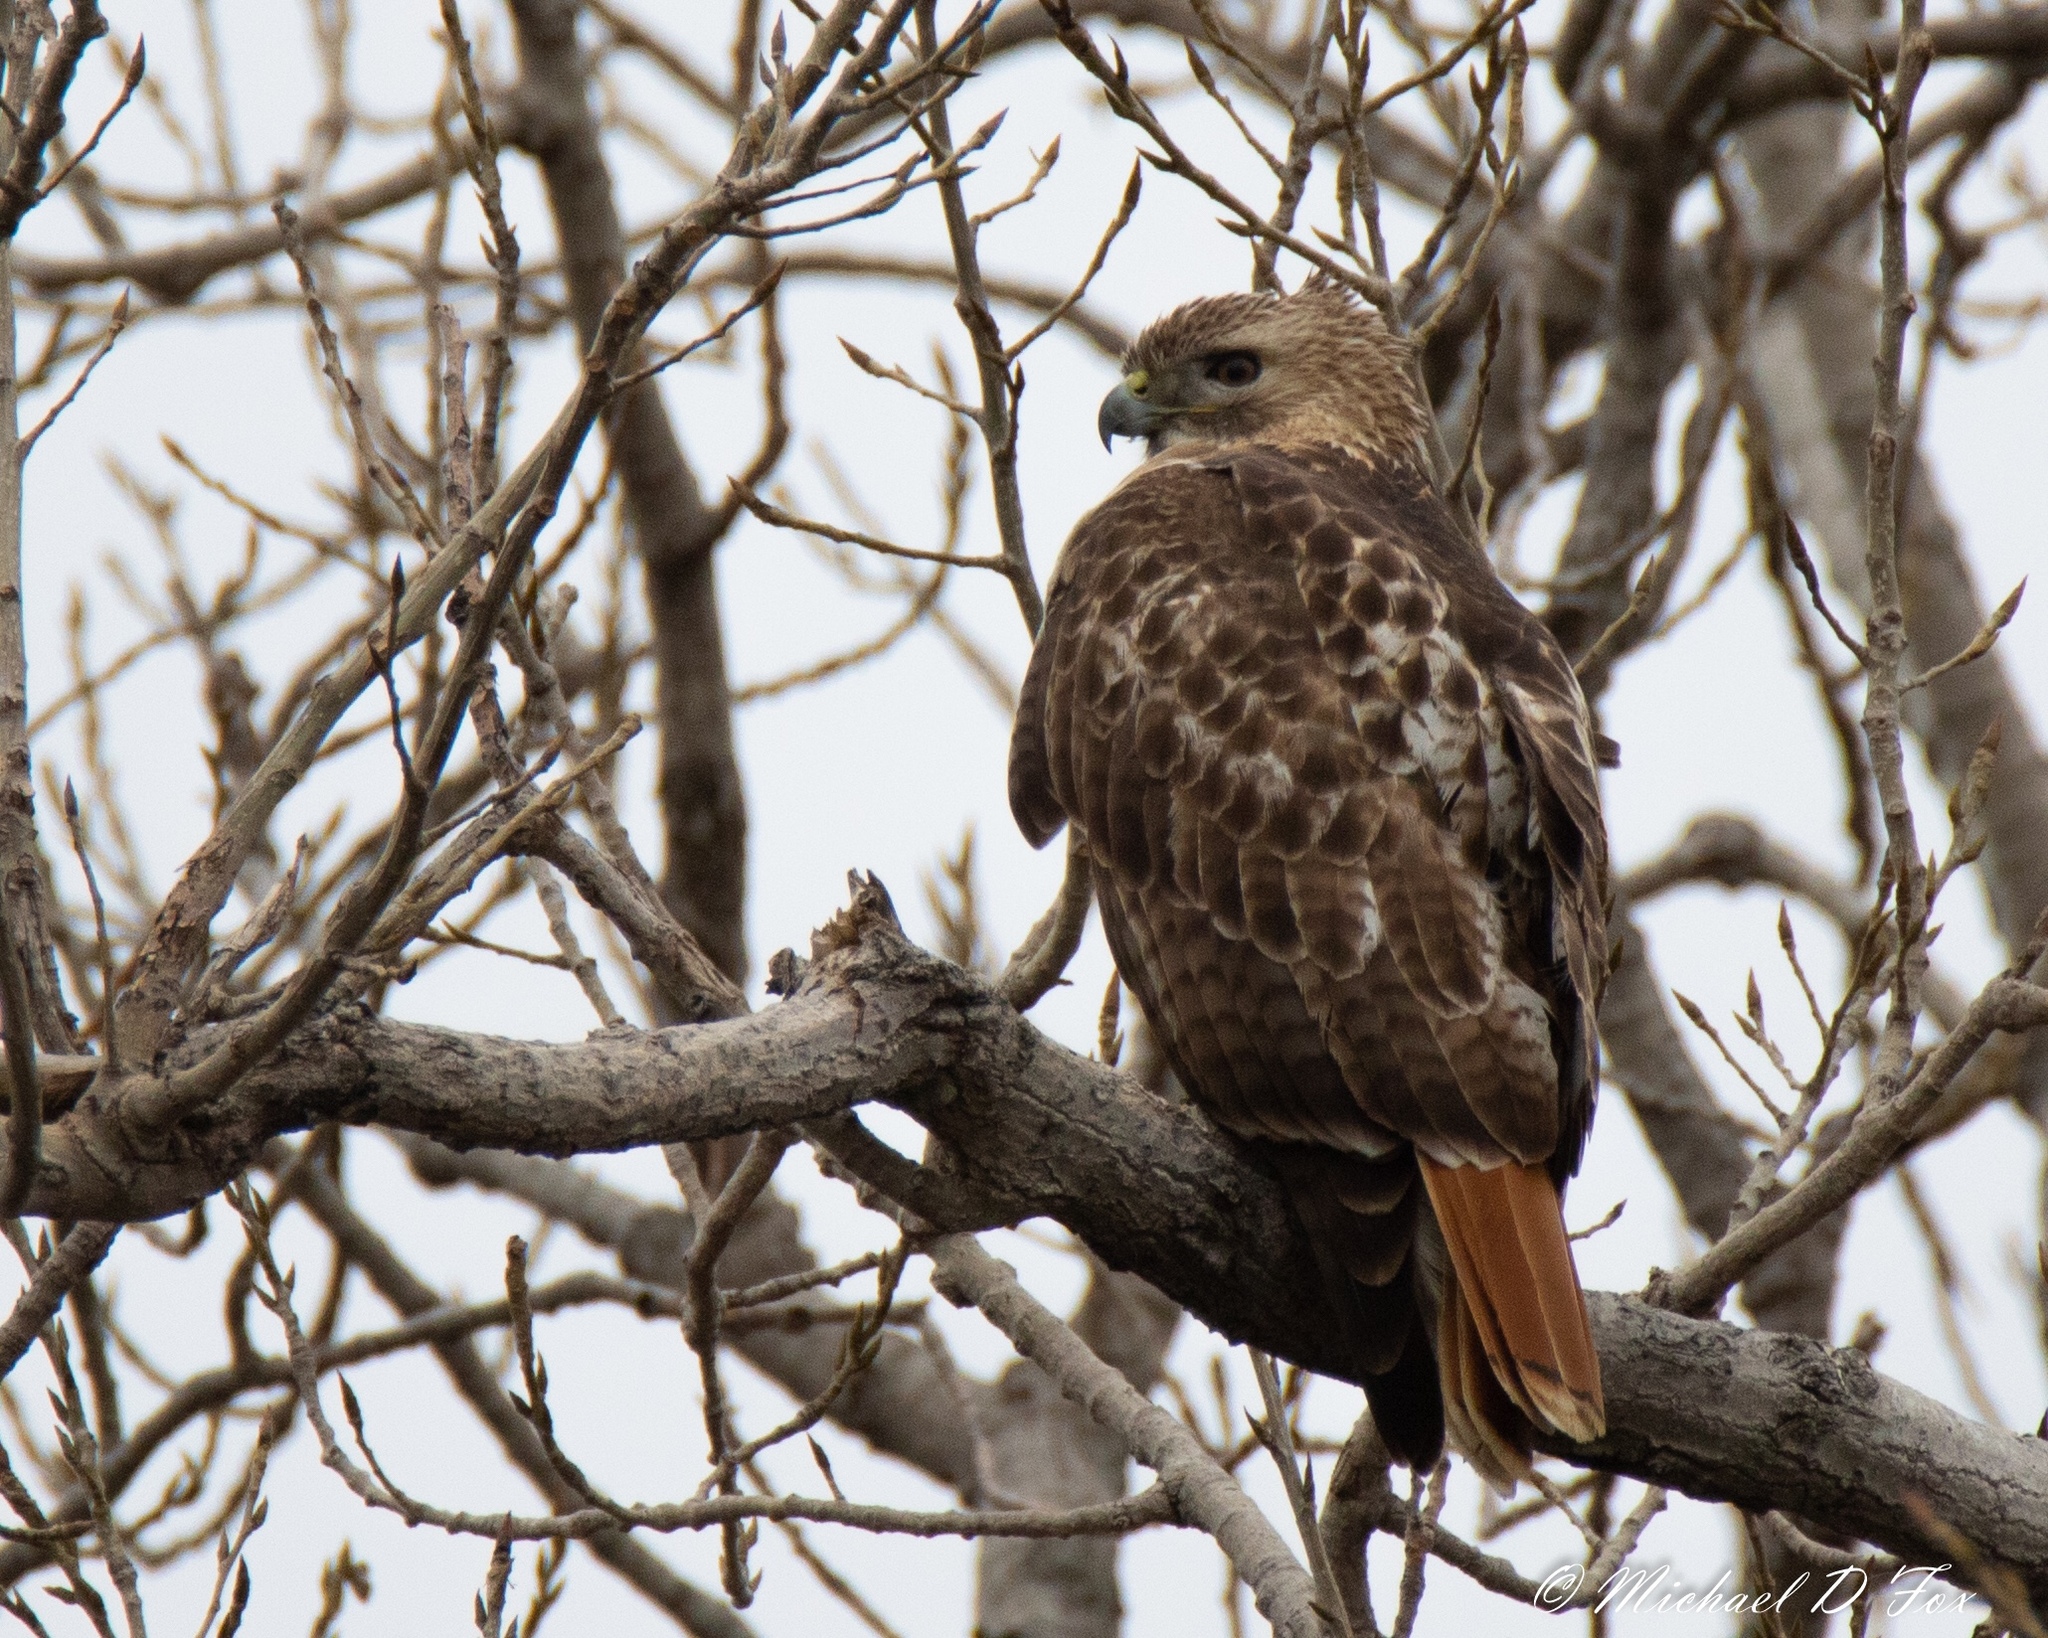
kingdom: Animalia
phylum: Chordata
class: Aves
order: Accipitriformes
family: Accipitridae
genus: Buteo
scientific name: Buteo jamaicensis
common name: Red-tailed hawk
